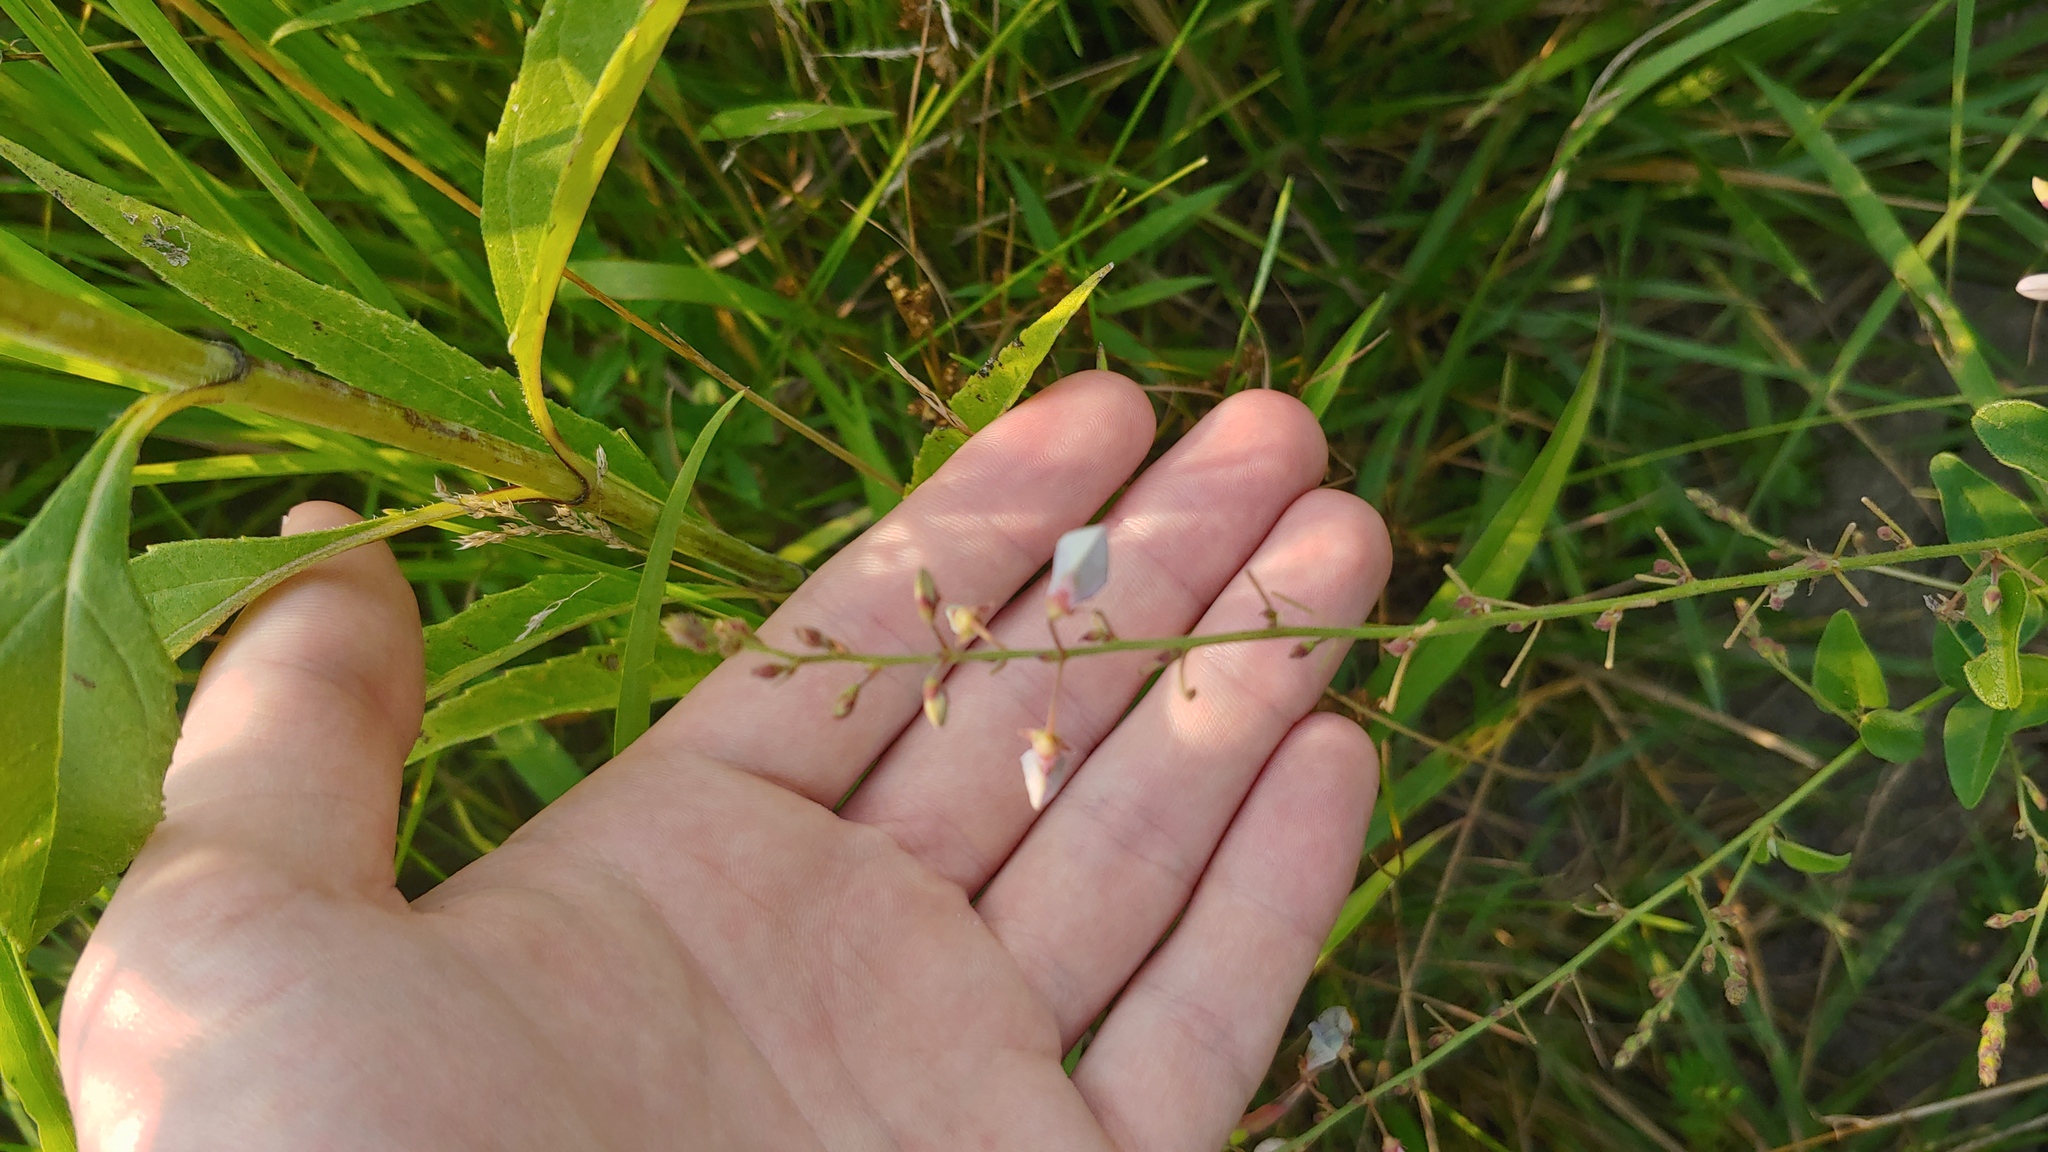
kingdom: Plantae
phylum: Tracheophyta
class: Magnoliopsida
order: Fabales
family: Fabaceae
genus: Desmodium
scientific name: Desmodium illinoense
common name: Illinois tick-clover
